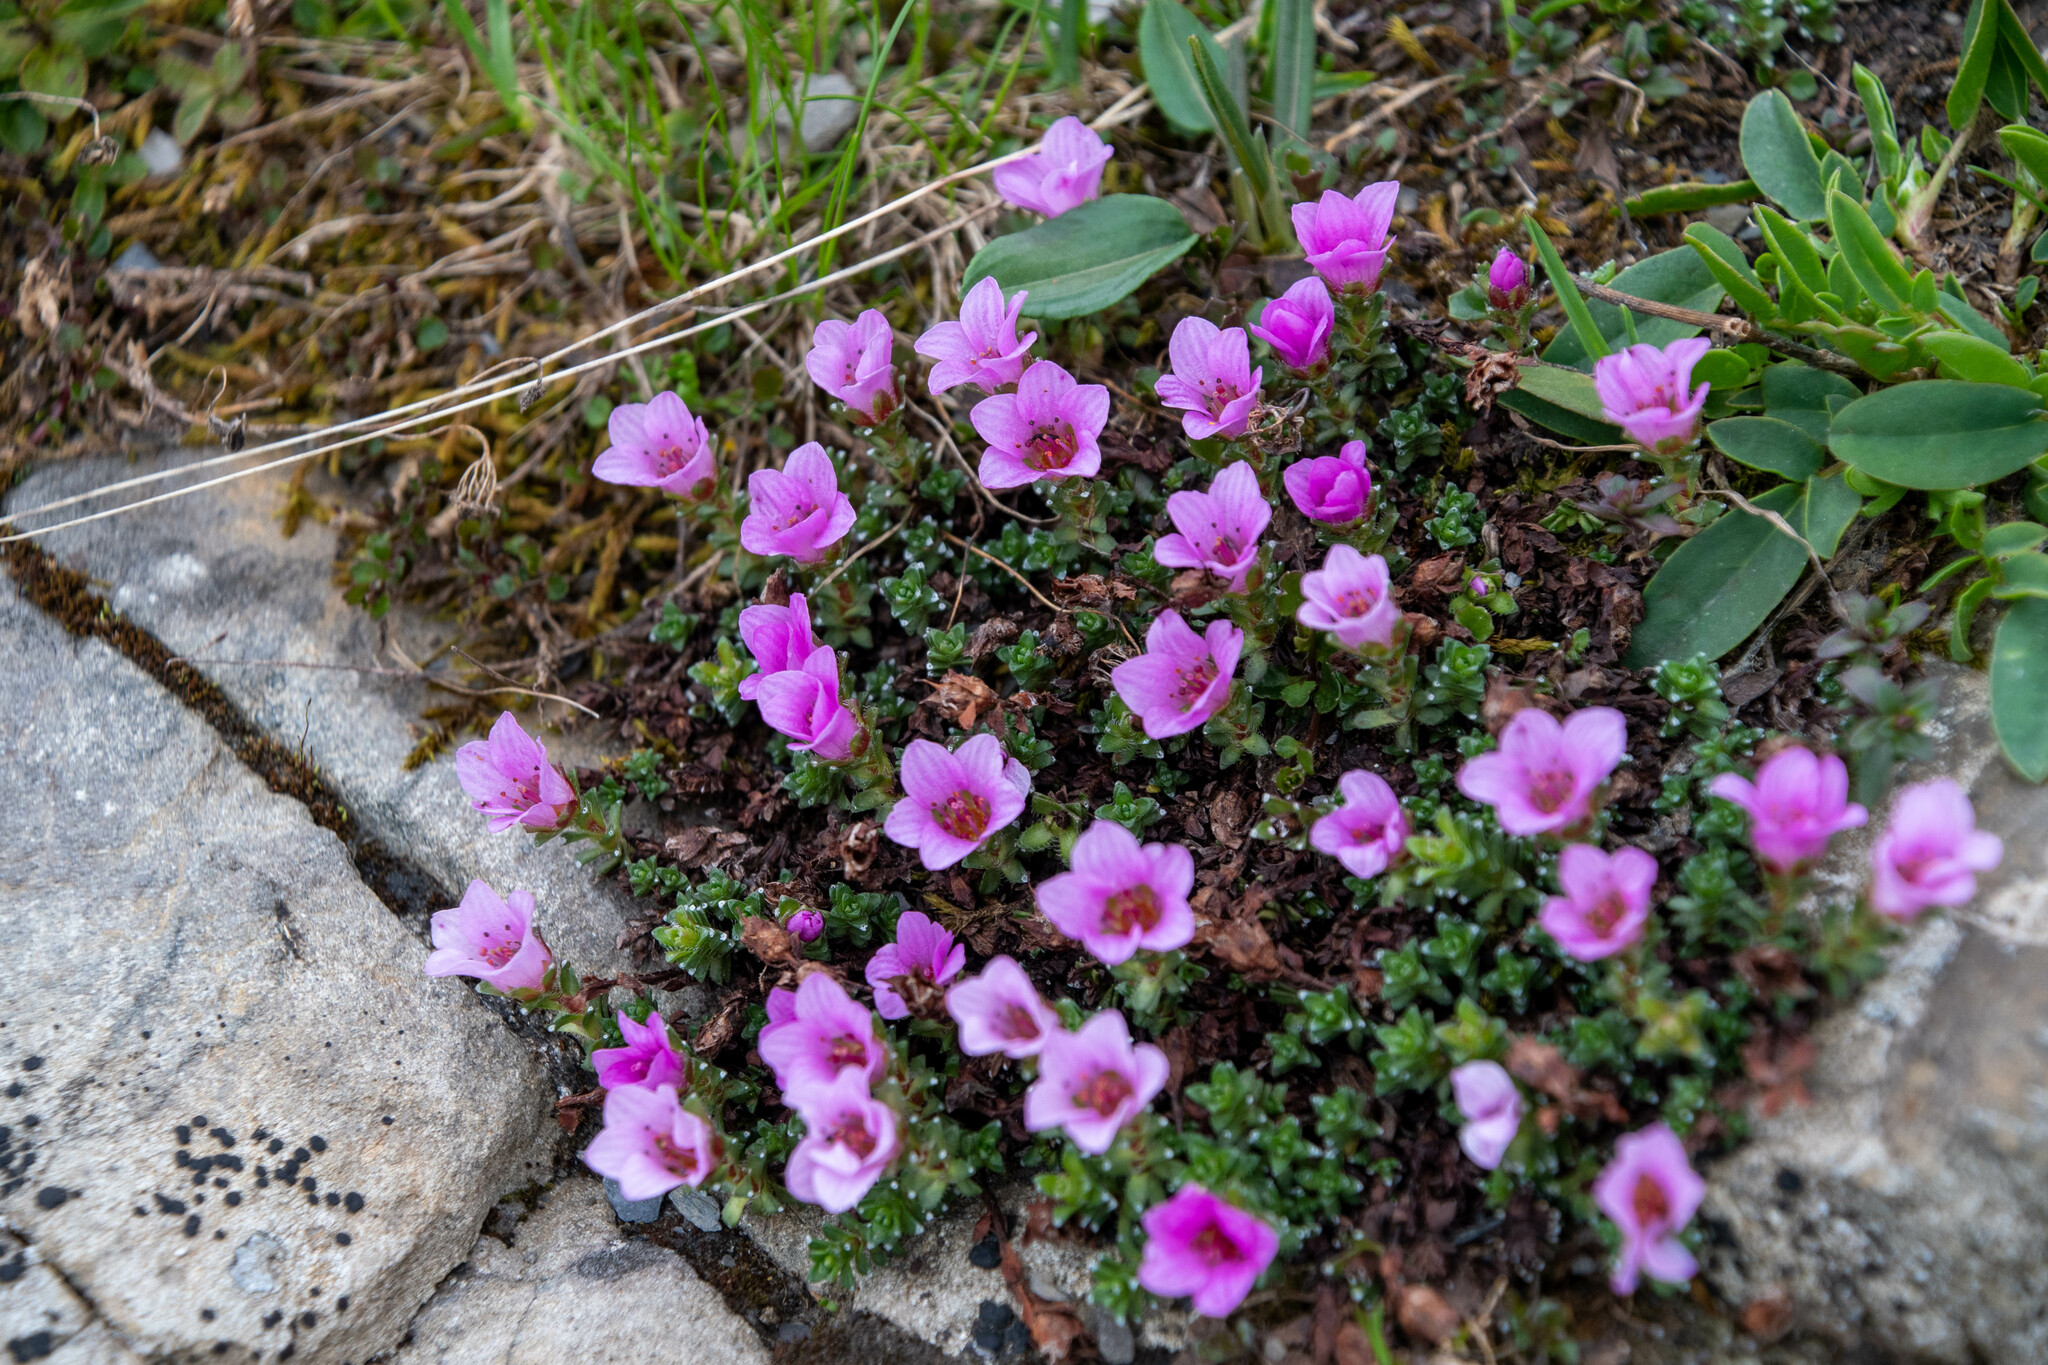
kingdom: Plantae
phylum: Tracheophyta
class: Magnoliopsida
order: Saxifragales
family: Saxifragaceae
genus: Saxifraga
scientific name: Saxifraga oppositifolia
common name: Purple saxifrage
